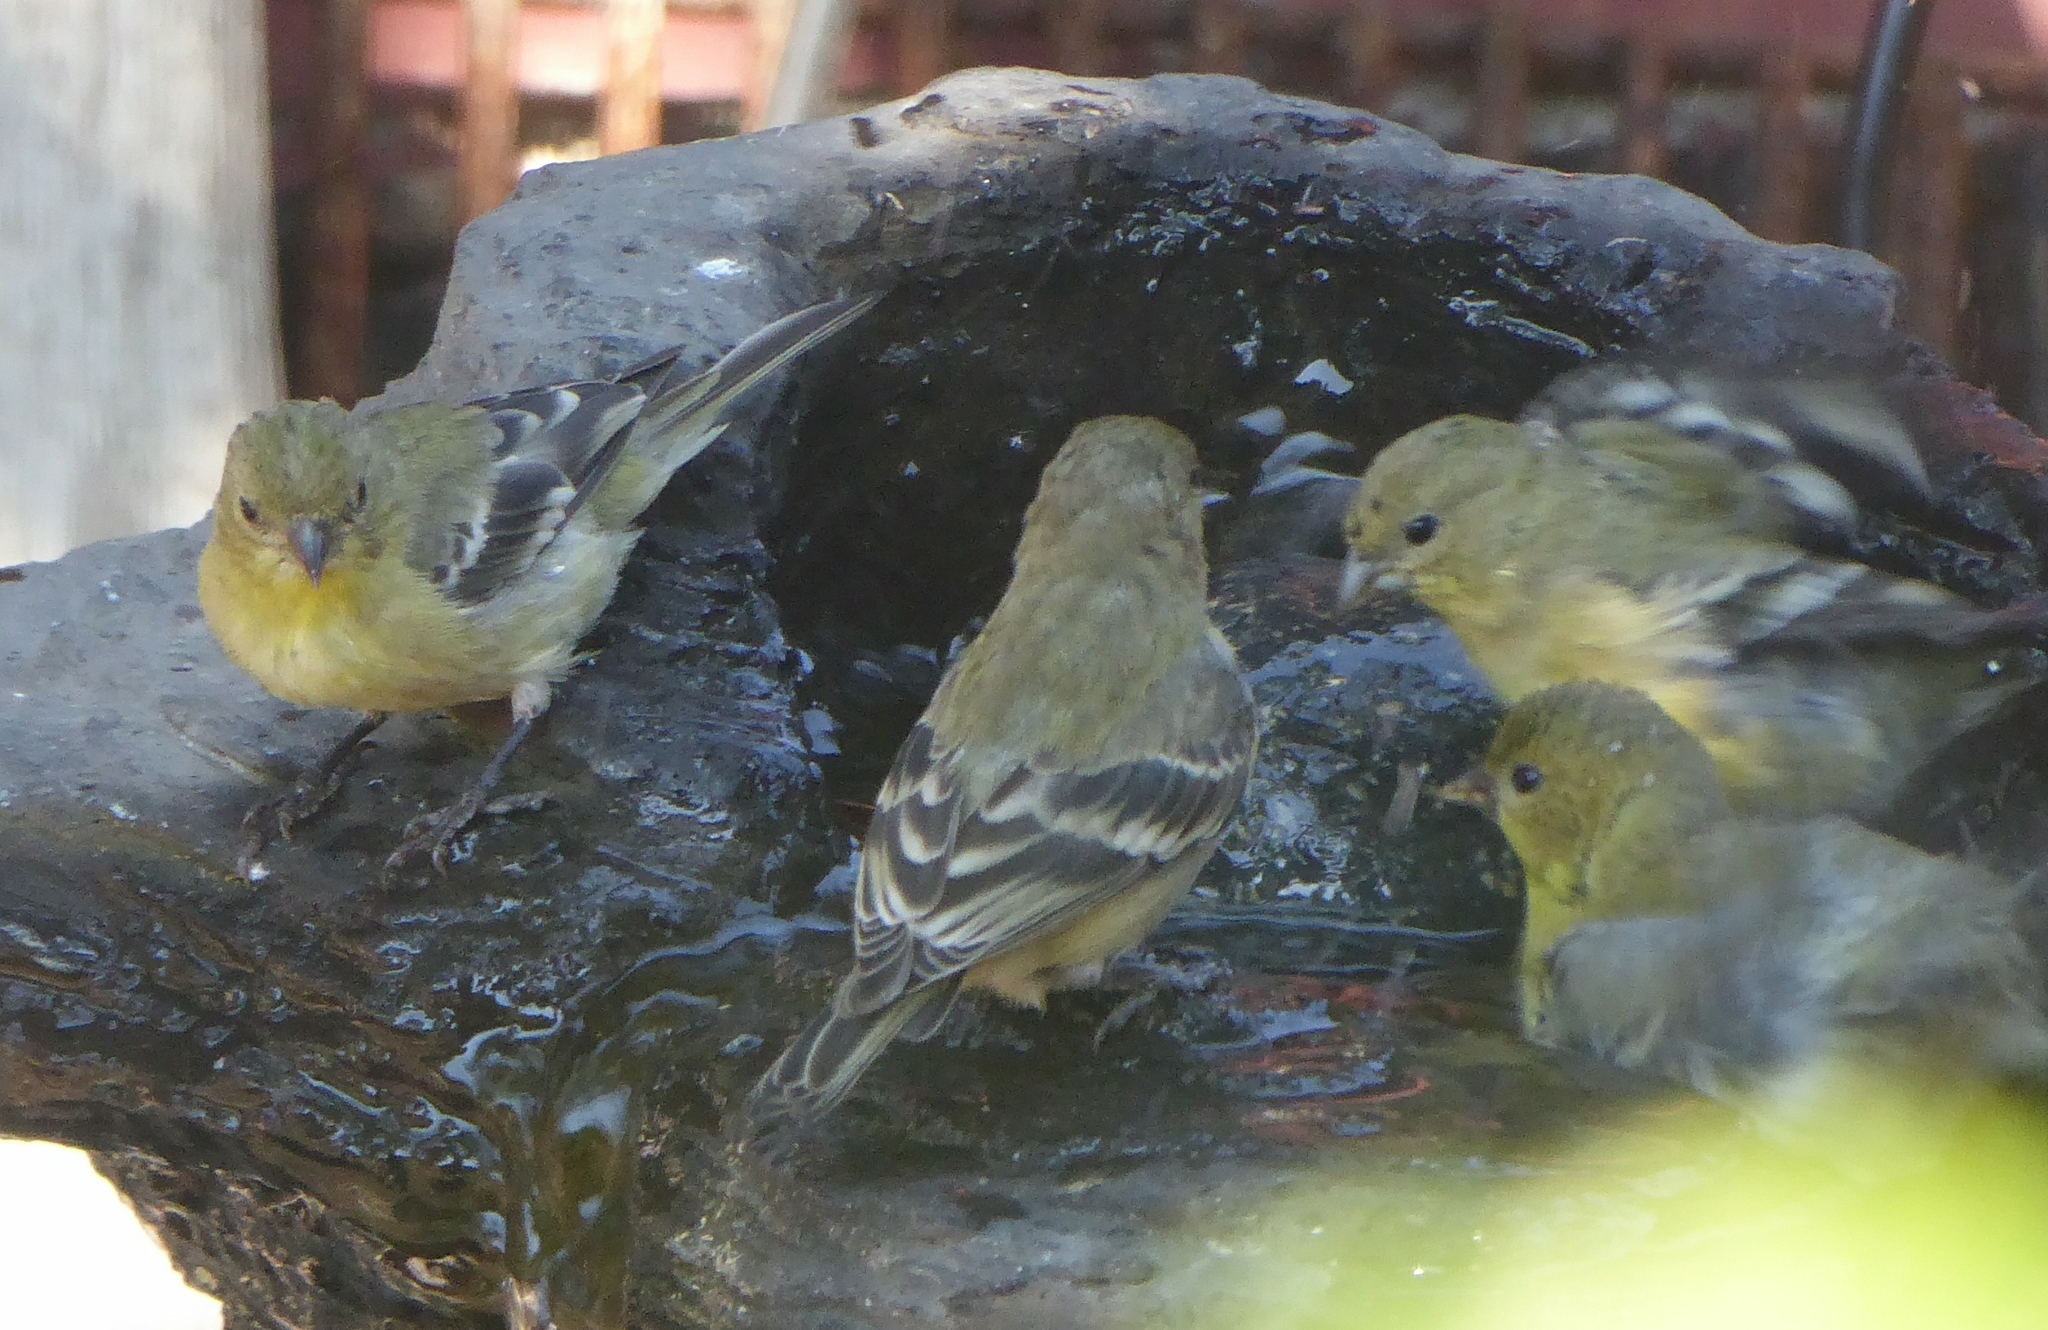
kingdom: Animalia
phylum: Chordata
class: Aves
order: Passeriformes
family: Fringillidae
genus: Spinus
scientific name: Spinus psaltria
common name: Lesser goldfinch
